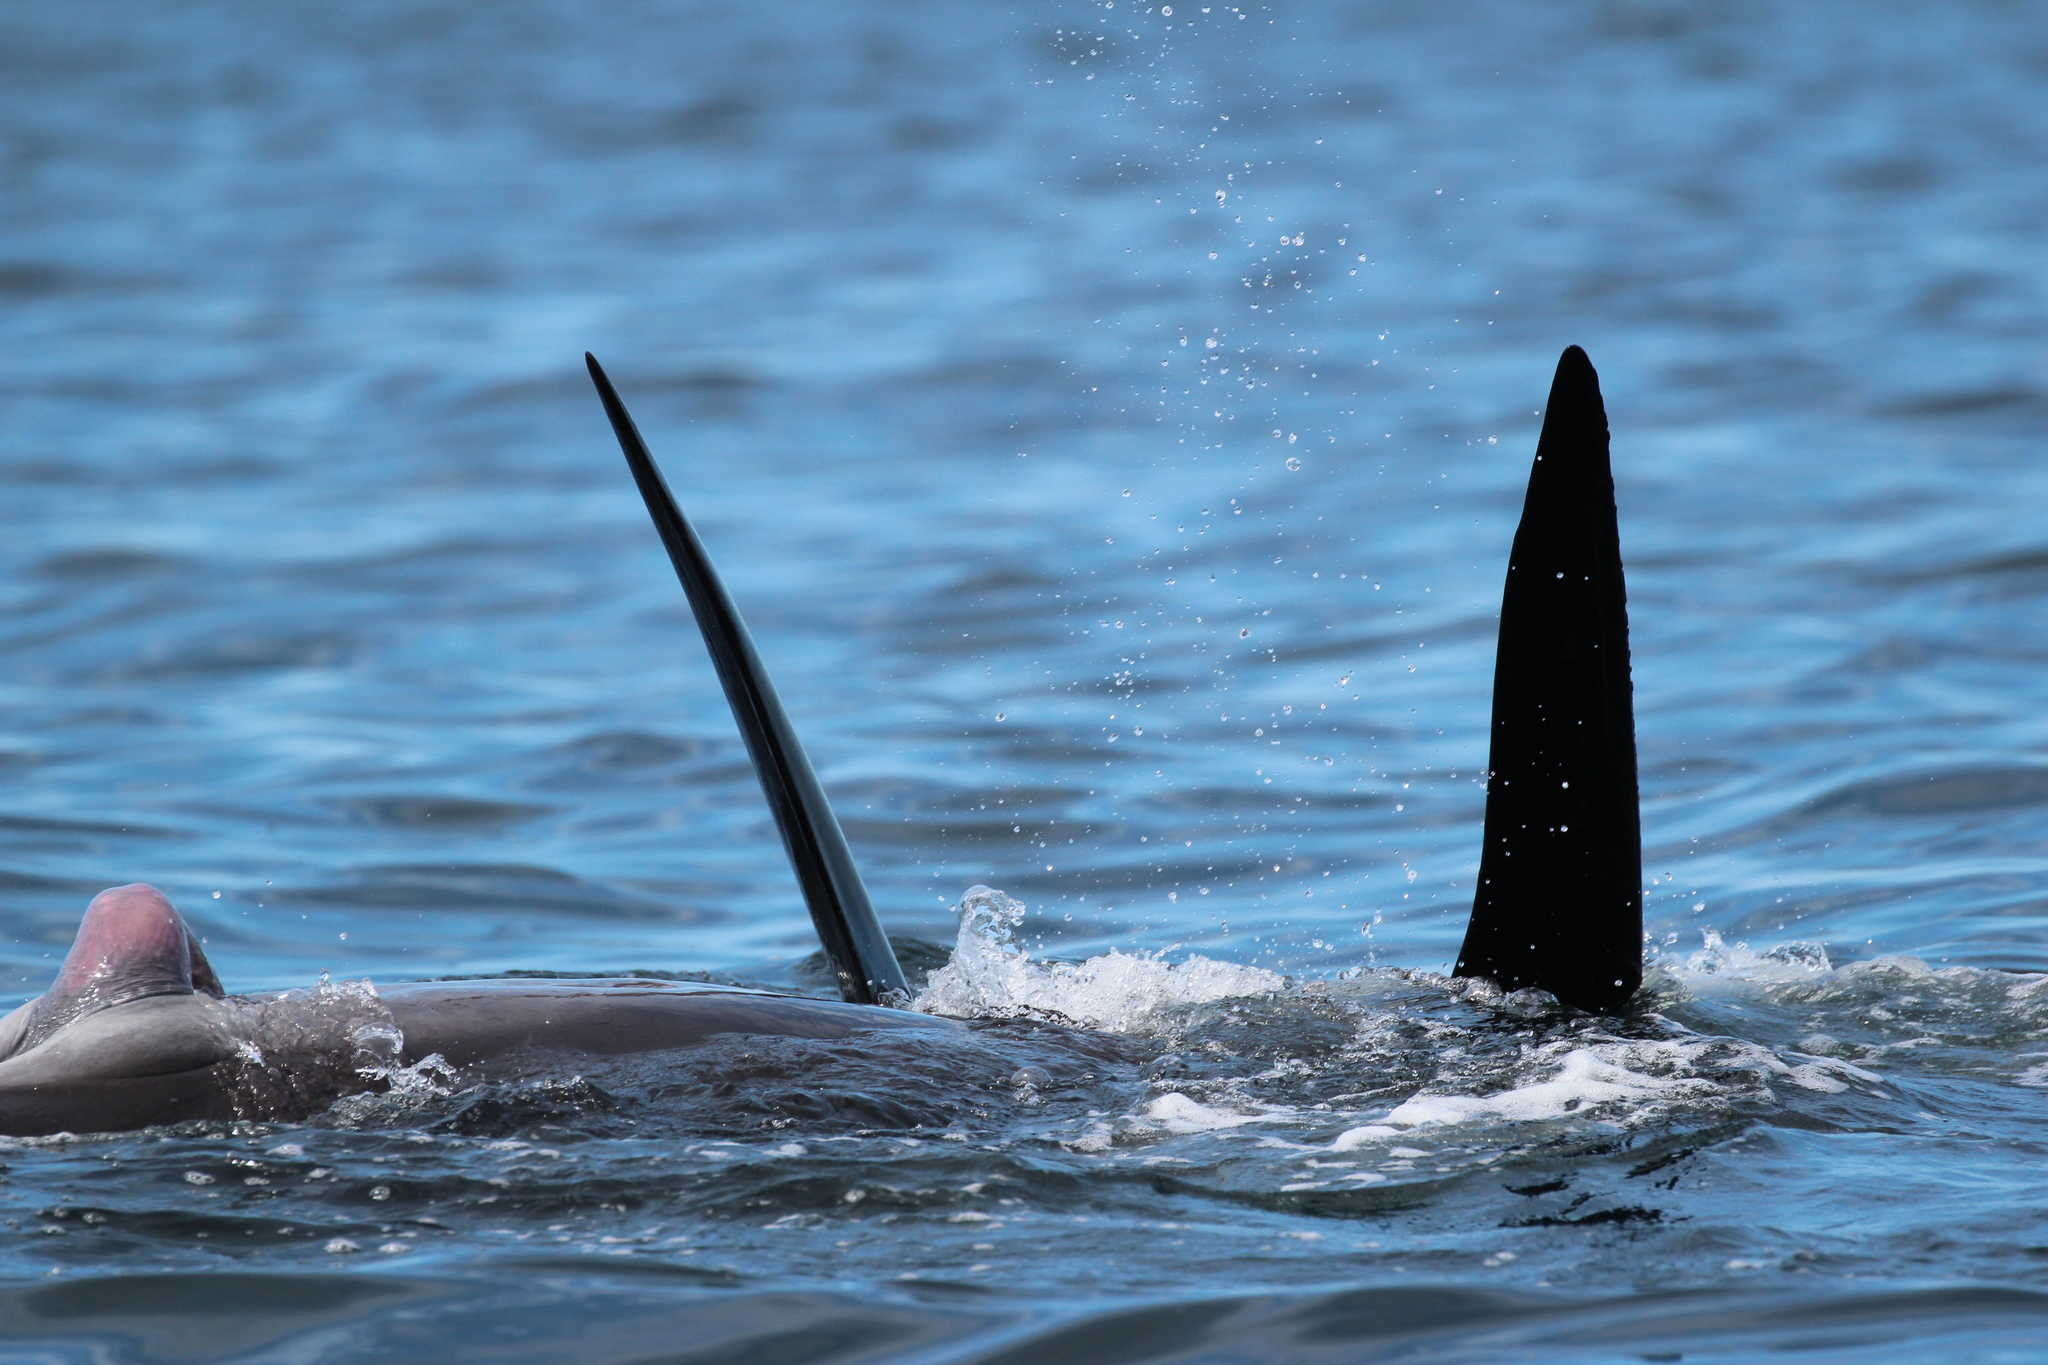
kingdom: Animalia
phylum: Chordata
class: Mammalia
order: Cetacea
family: Delphinidae
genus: Globicephala
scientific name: Globicephala melas
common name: Long-finned pilot whale
